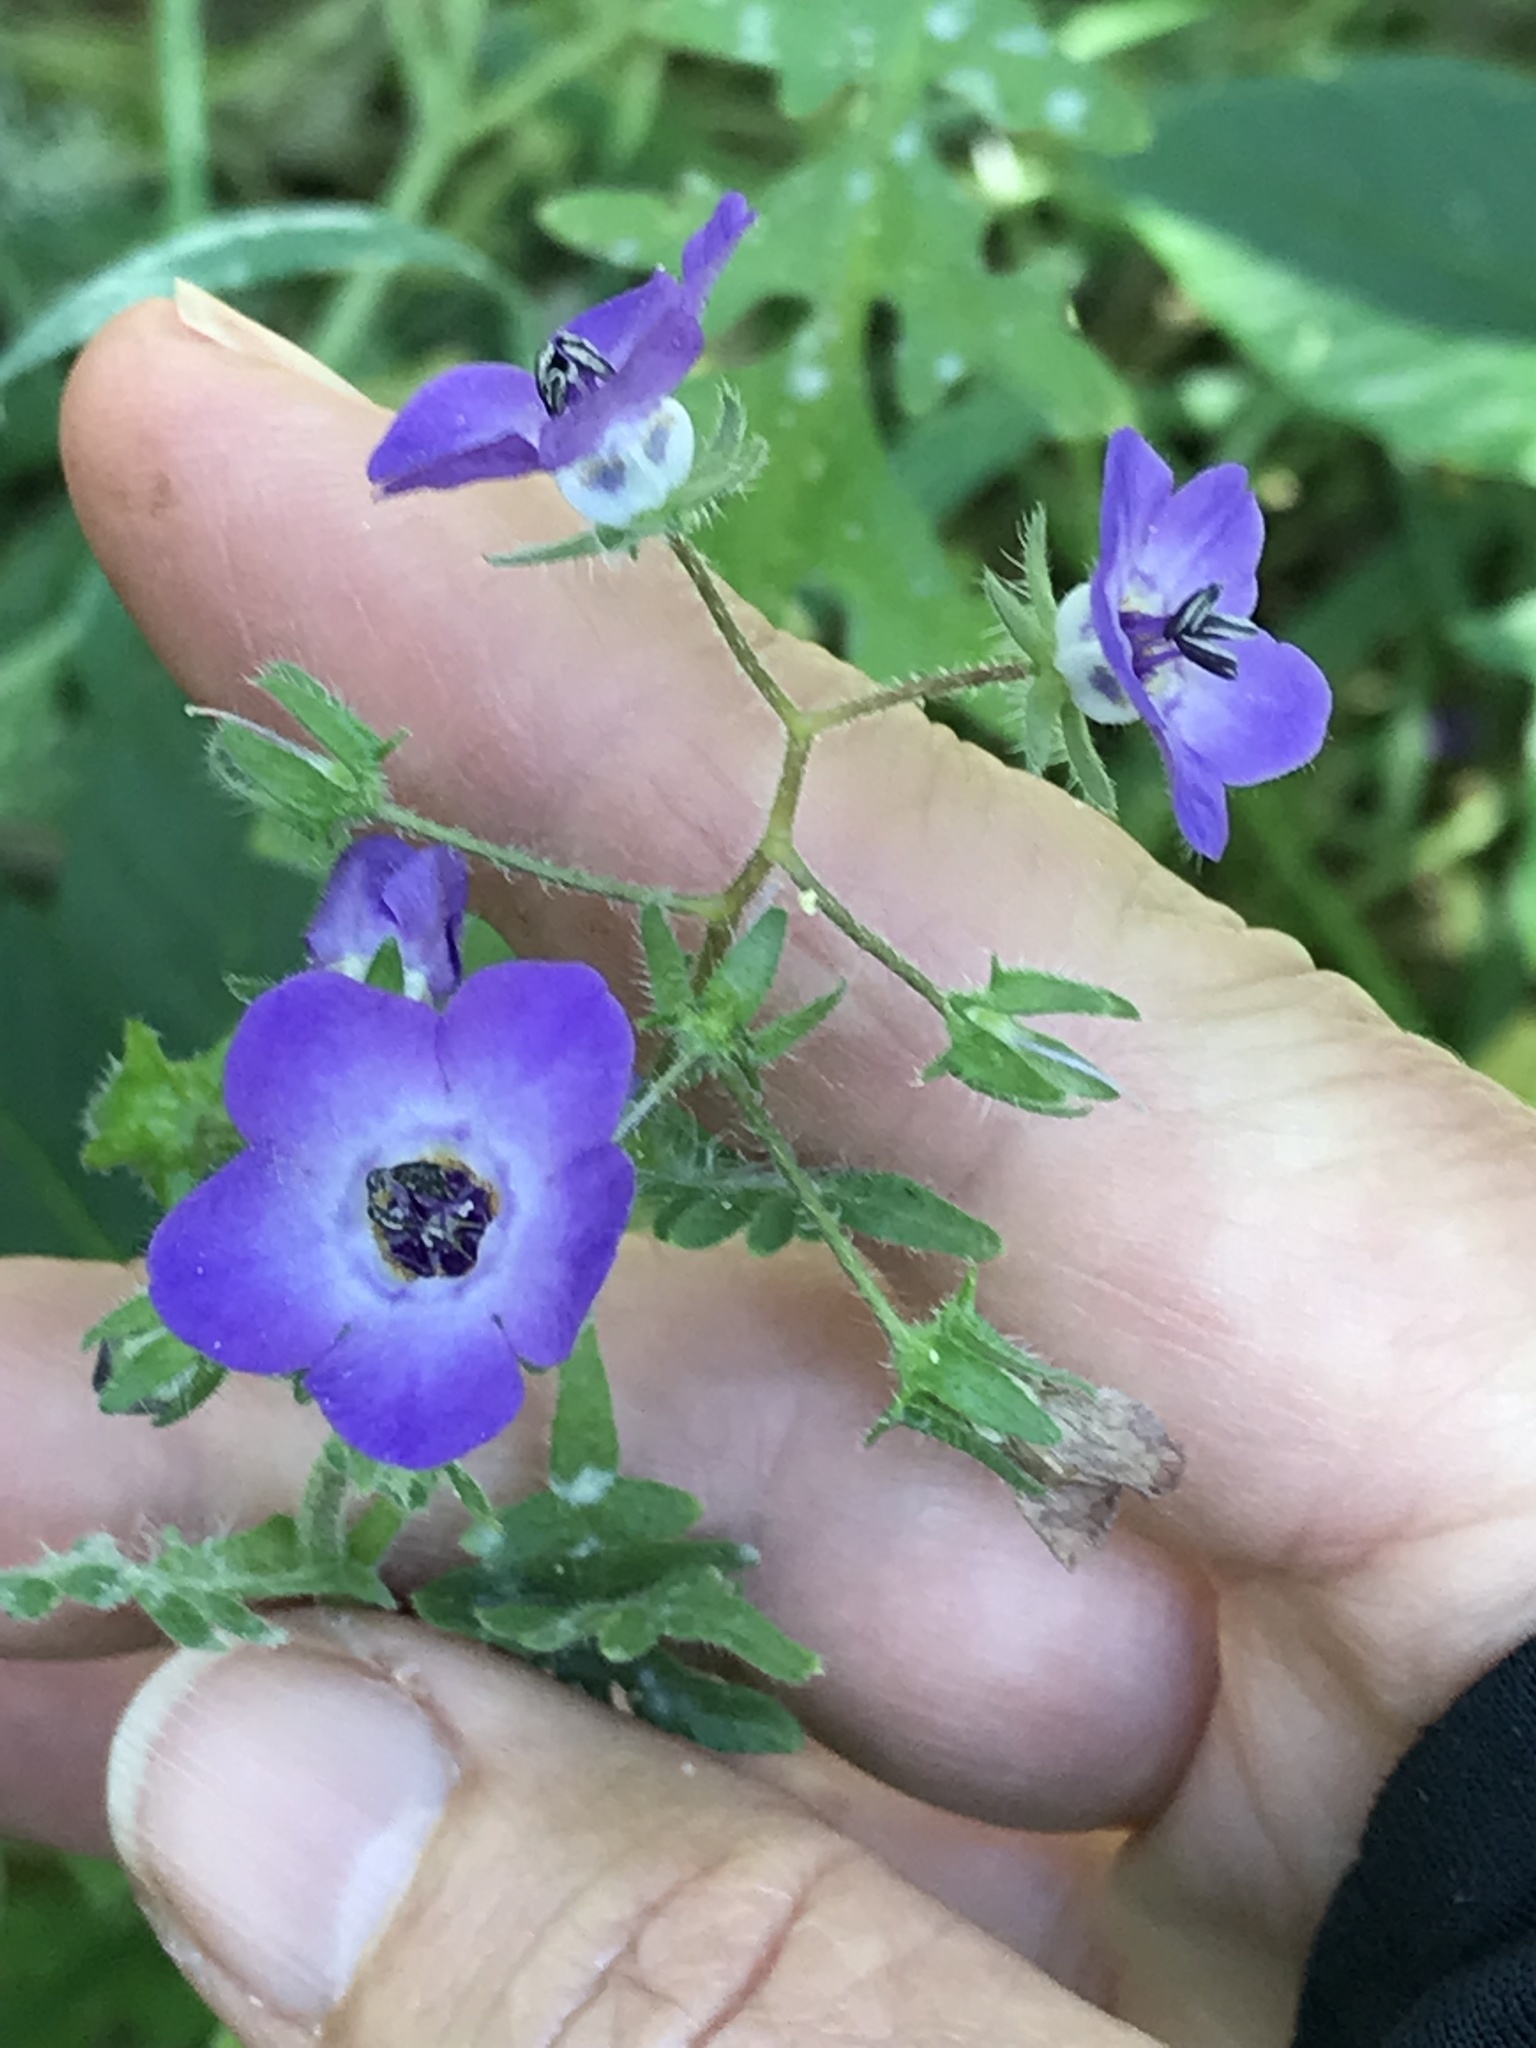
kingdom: Plantae
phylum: Tracheophyta
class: Magnoliopsida
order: Boraginales
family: Hydrophyllaceae
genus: Pholistoma
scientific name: Pholistoma auritum
